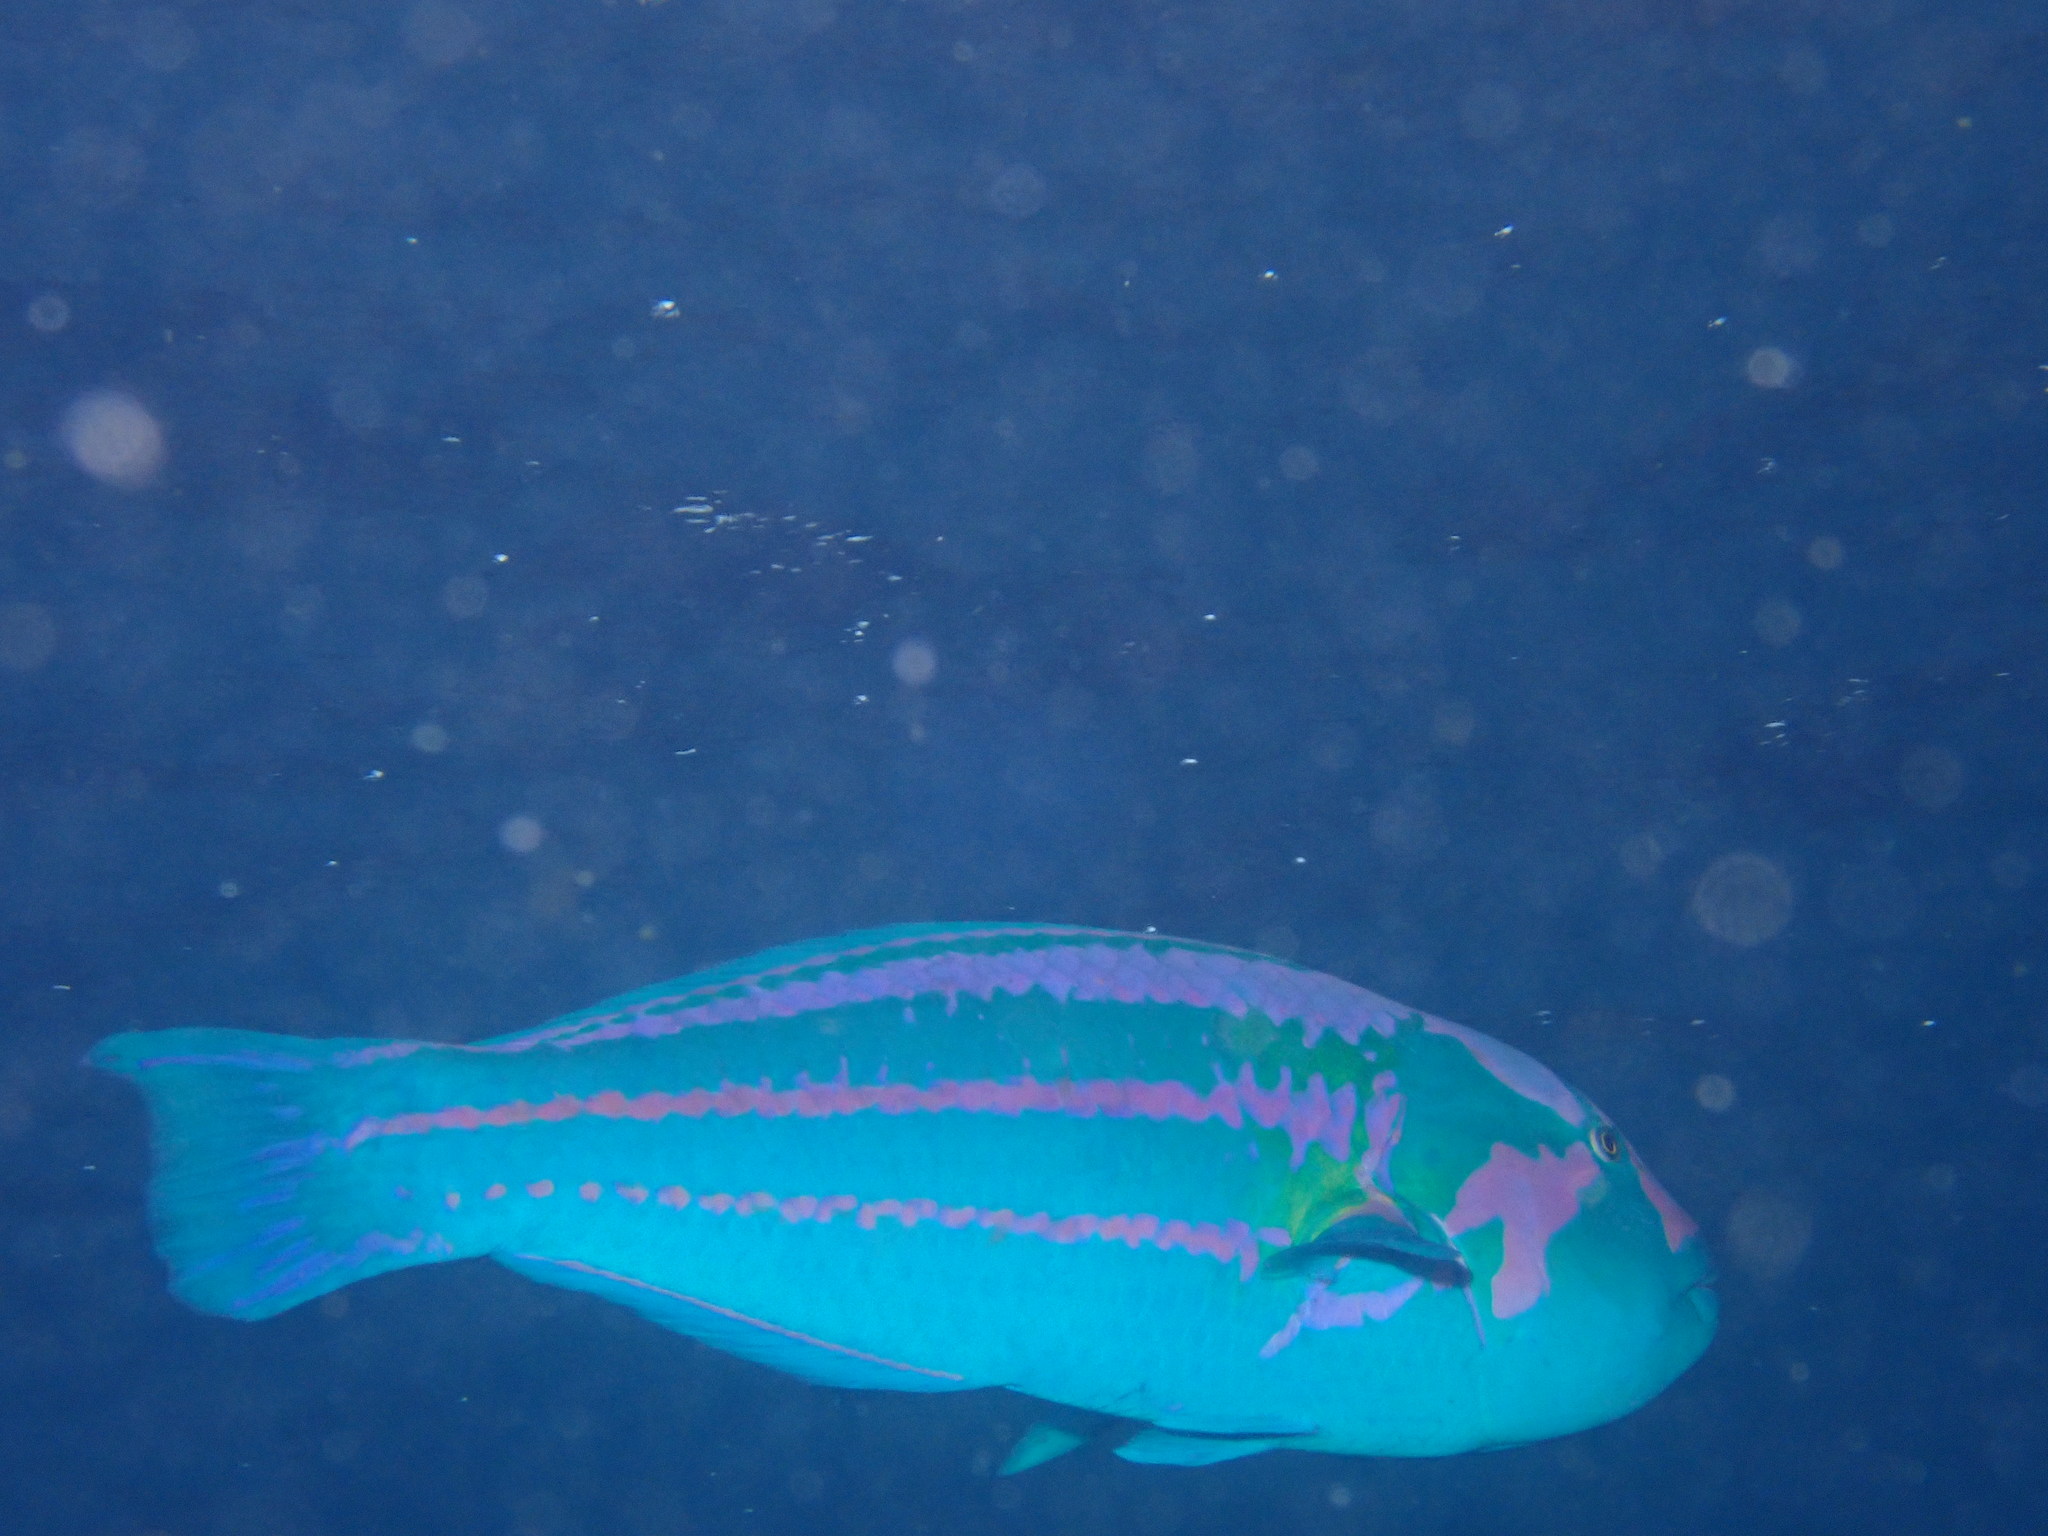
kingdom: Animalia
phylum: Chordata
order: Perciformes
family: Labridae
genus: Thalassoma
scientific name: Thalassoma purpureum
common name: Parrotfish
